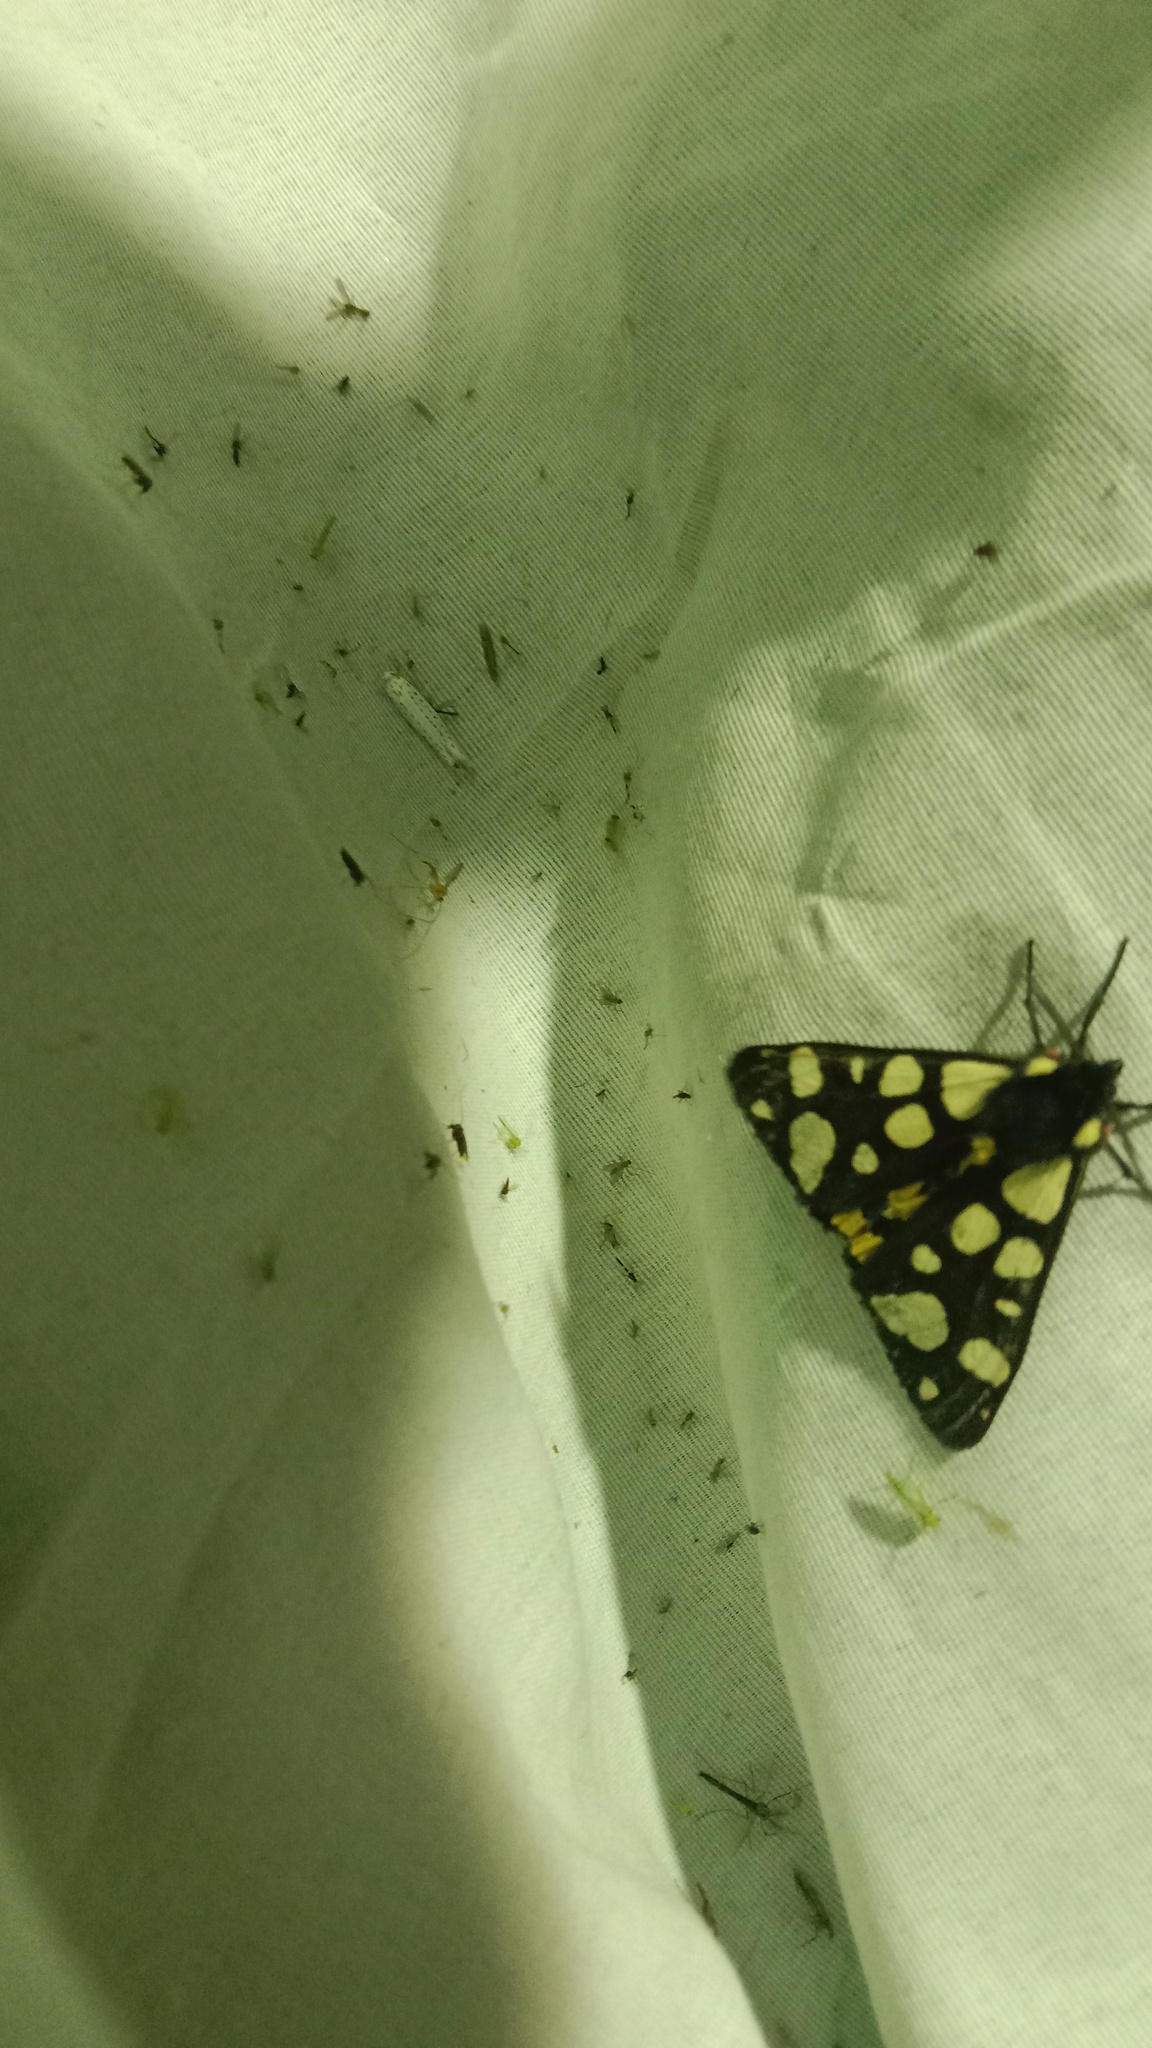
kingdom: Animalia
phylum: Arthropoda
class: Insecta
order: Lepidoptera
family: Erebidae
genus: Epicallia
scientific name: Epicallia villica
